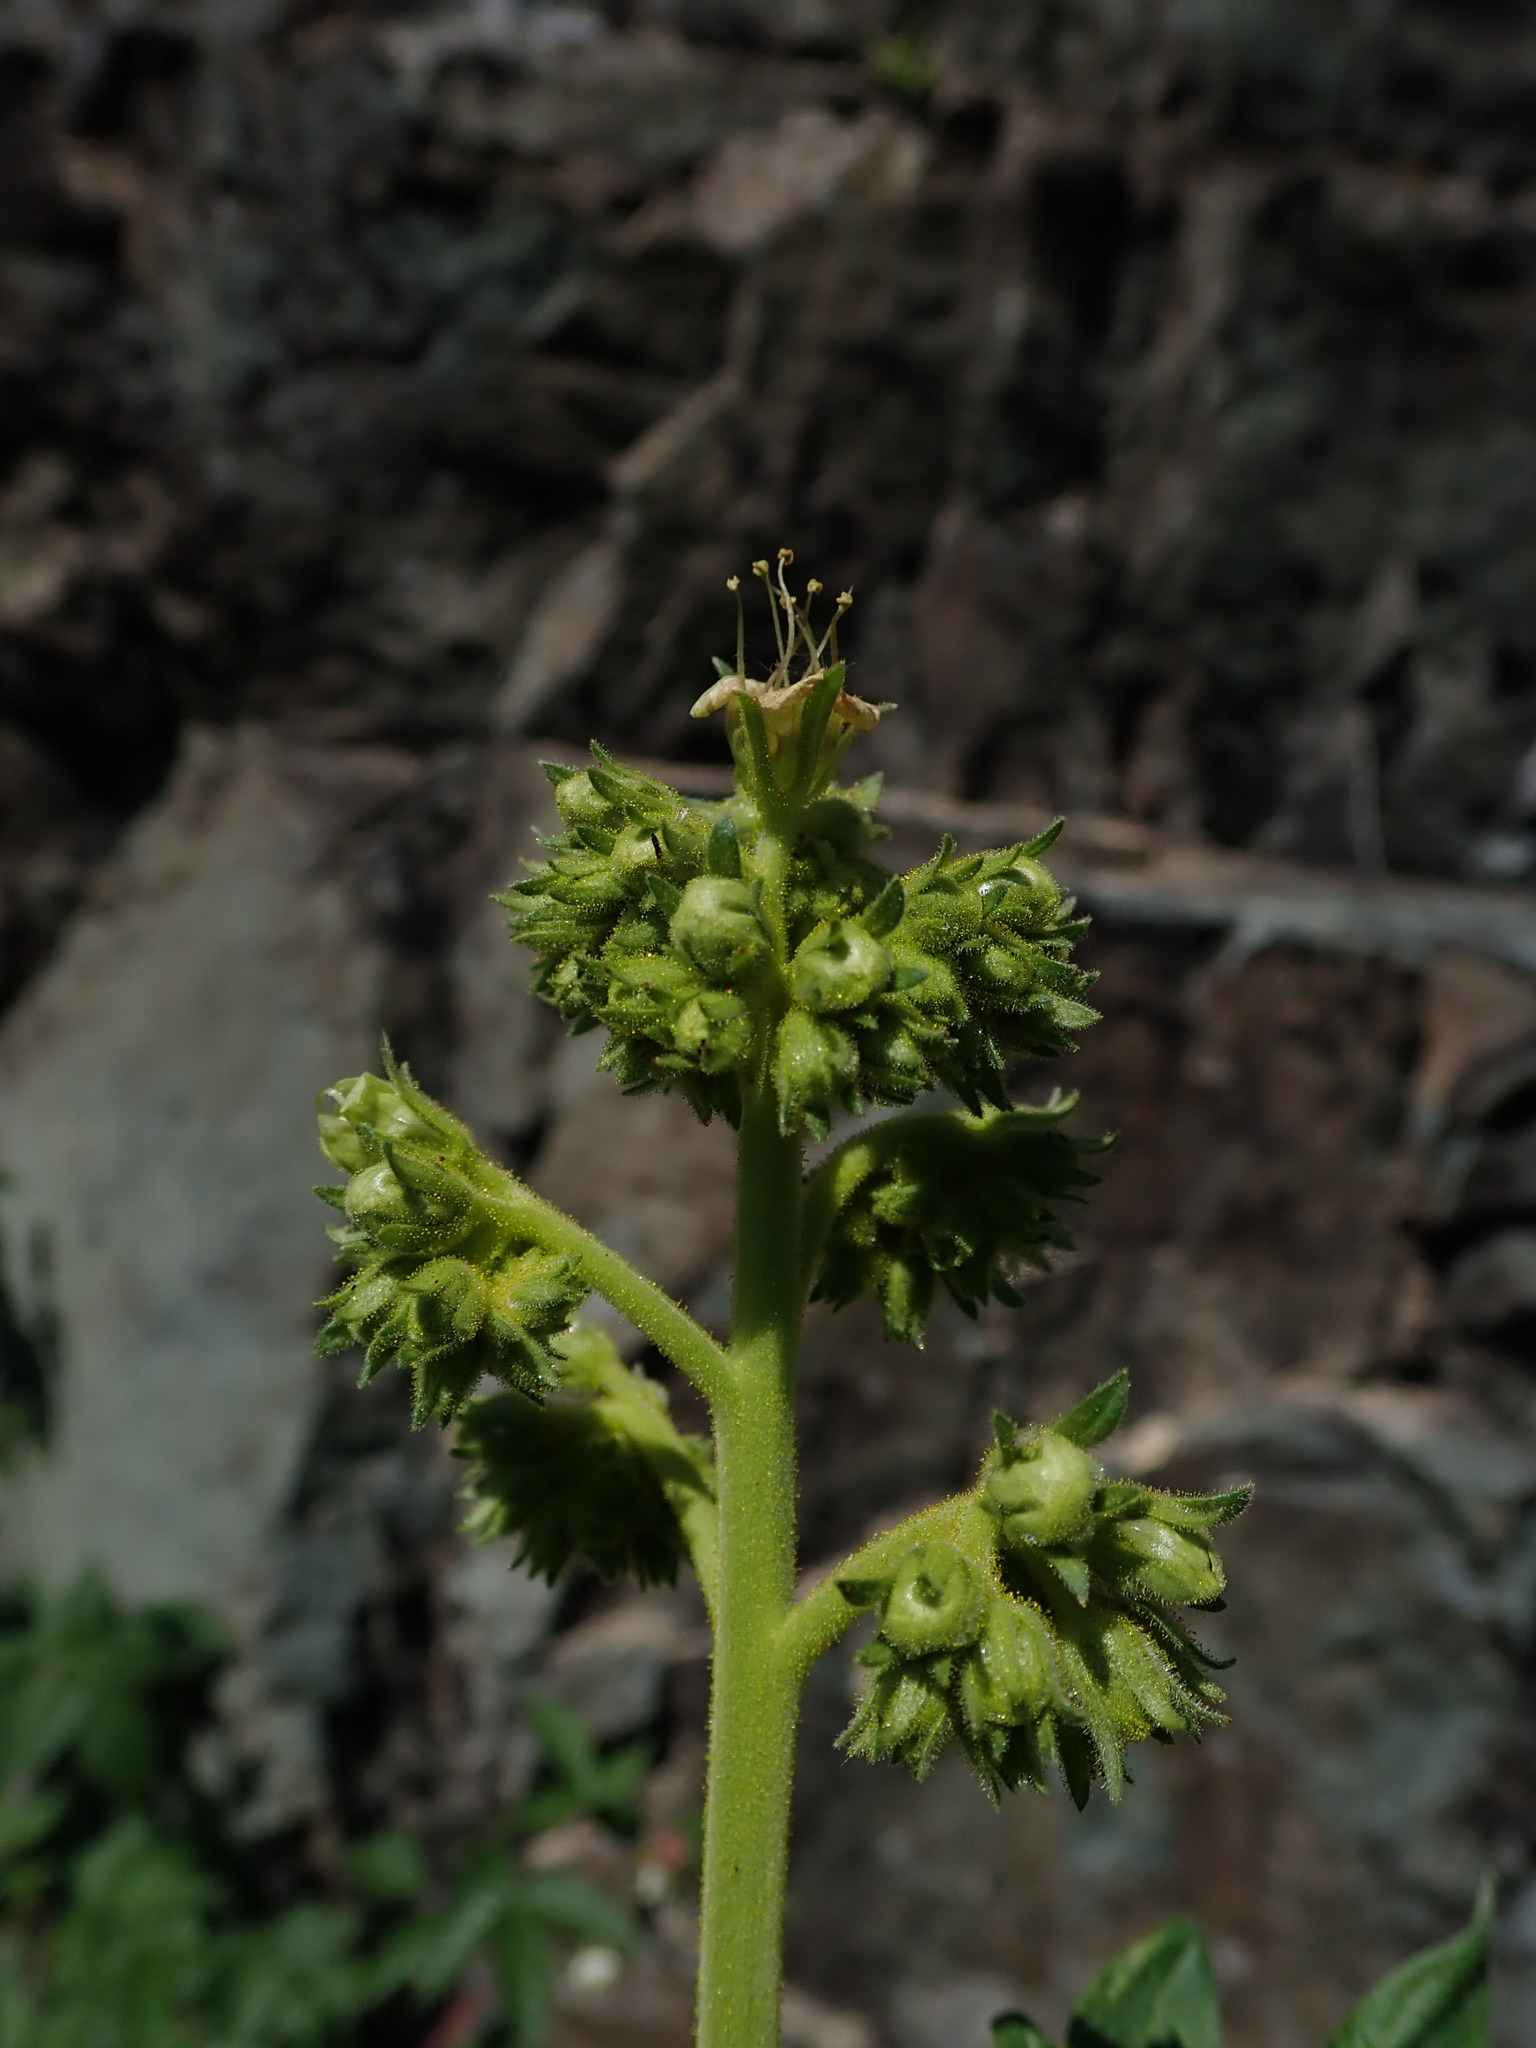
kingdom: Plantae
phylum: Tracheophyta
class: Magnoliopsida
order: Boraginales
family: Hydrophyllaceae
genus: Phacelia
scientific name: Phacelia procera
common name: Tall phacelia
